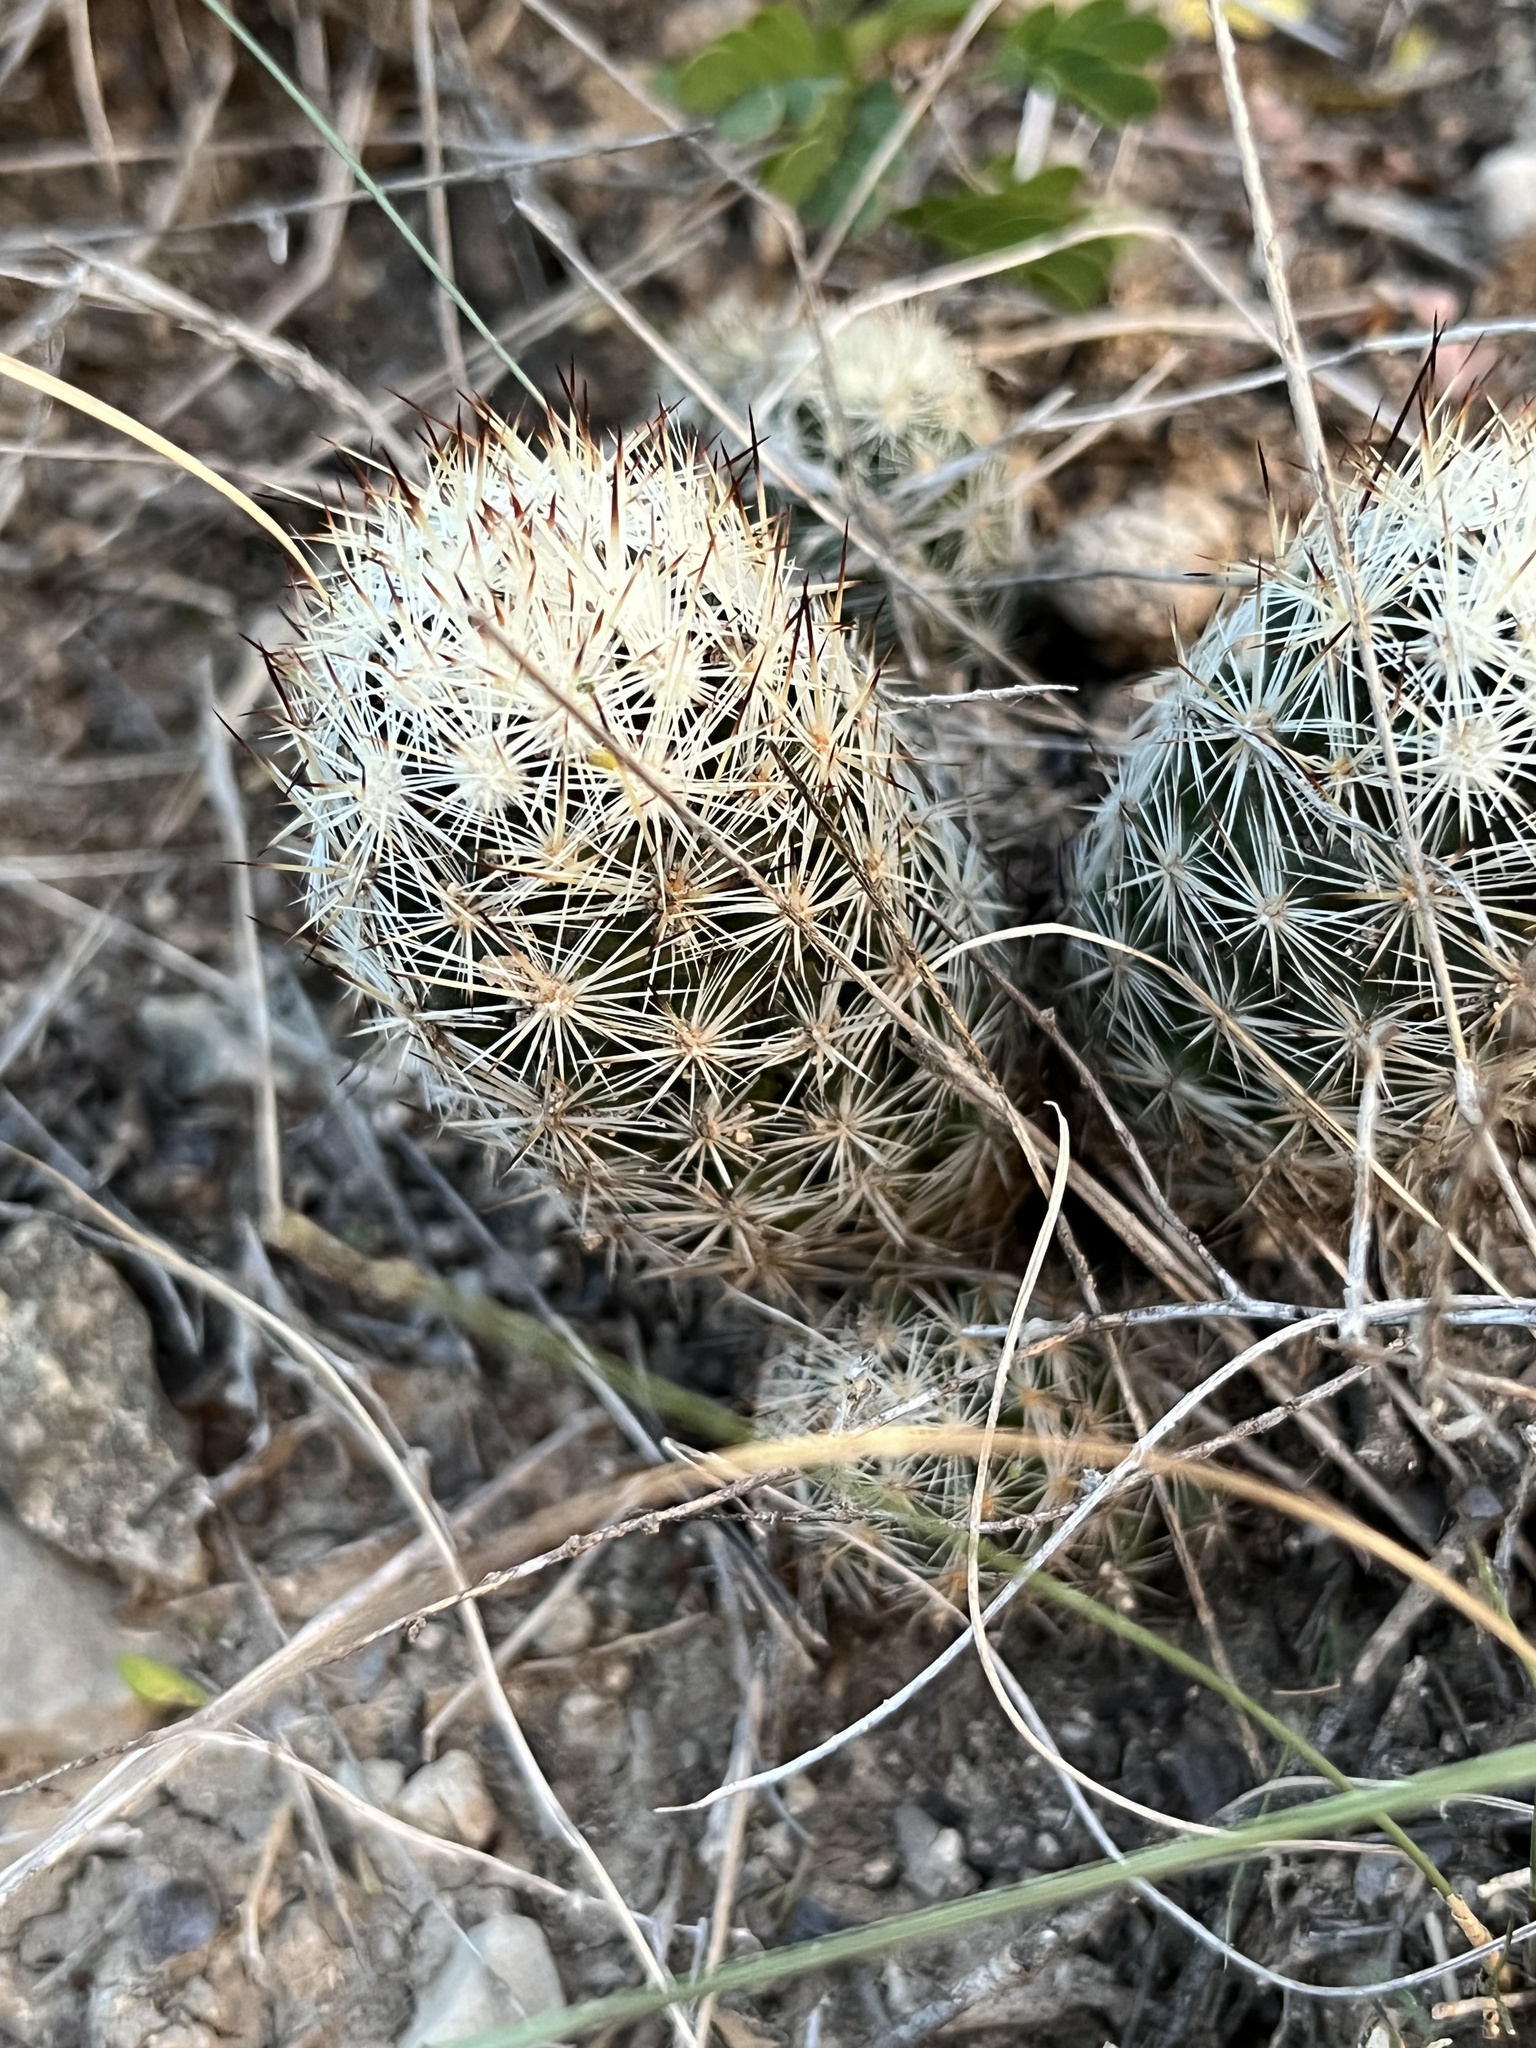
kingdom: Plantae
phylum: Tracheophyta
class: Magnoliopsida
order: Caryophyllales
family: Cactaceae
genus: Pelecyphora
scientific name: Pelecyphora emskoetteriana
